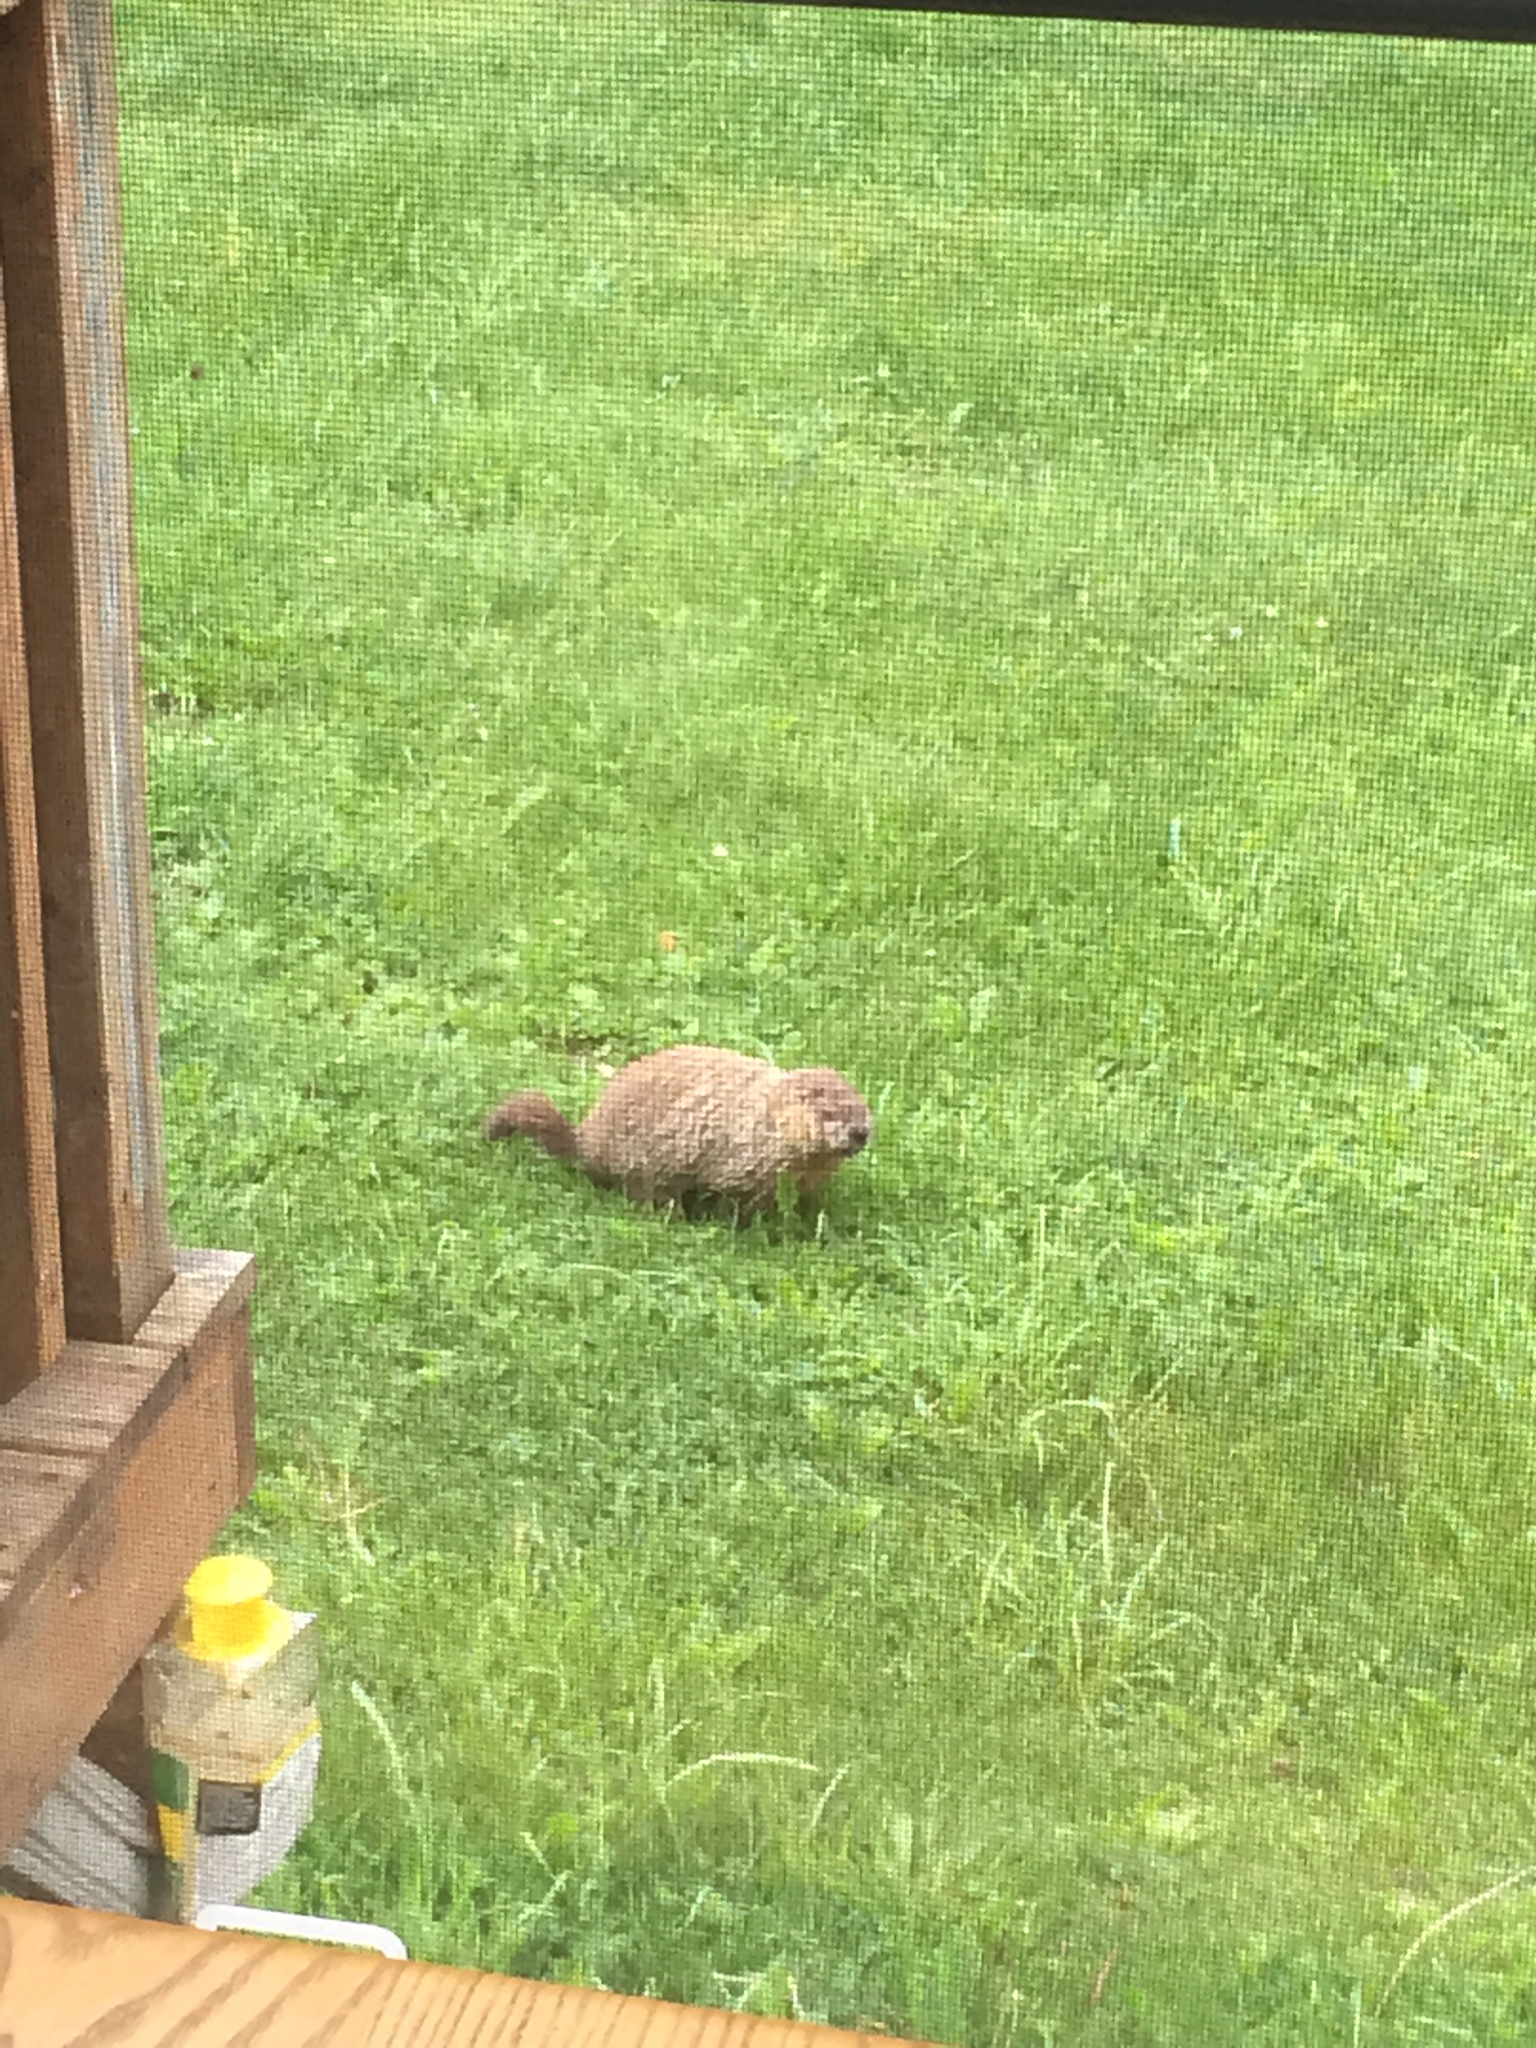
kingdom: Animalia
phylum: Chordata
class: Mammalia
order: Rodentia
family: Sciuridae
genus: Marmota
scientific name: Marmota monax
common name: Groundhog
